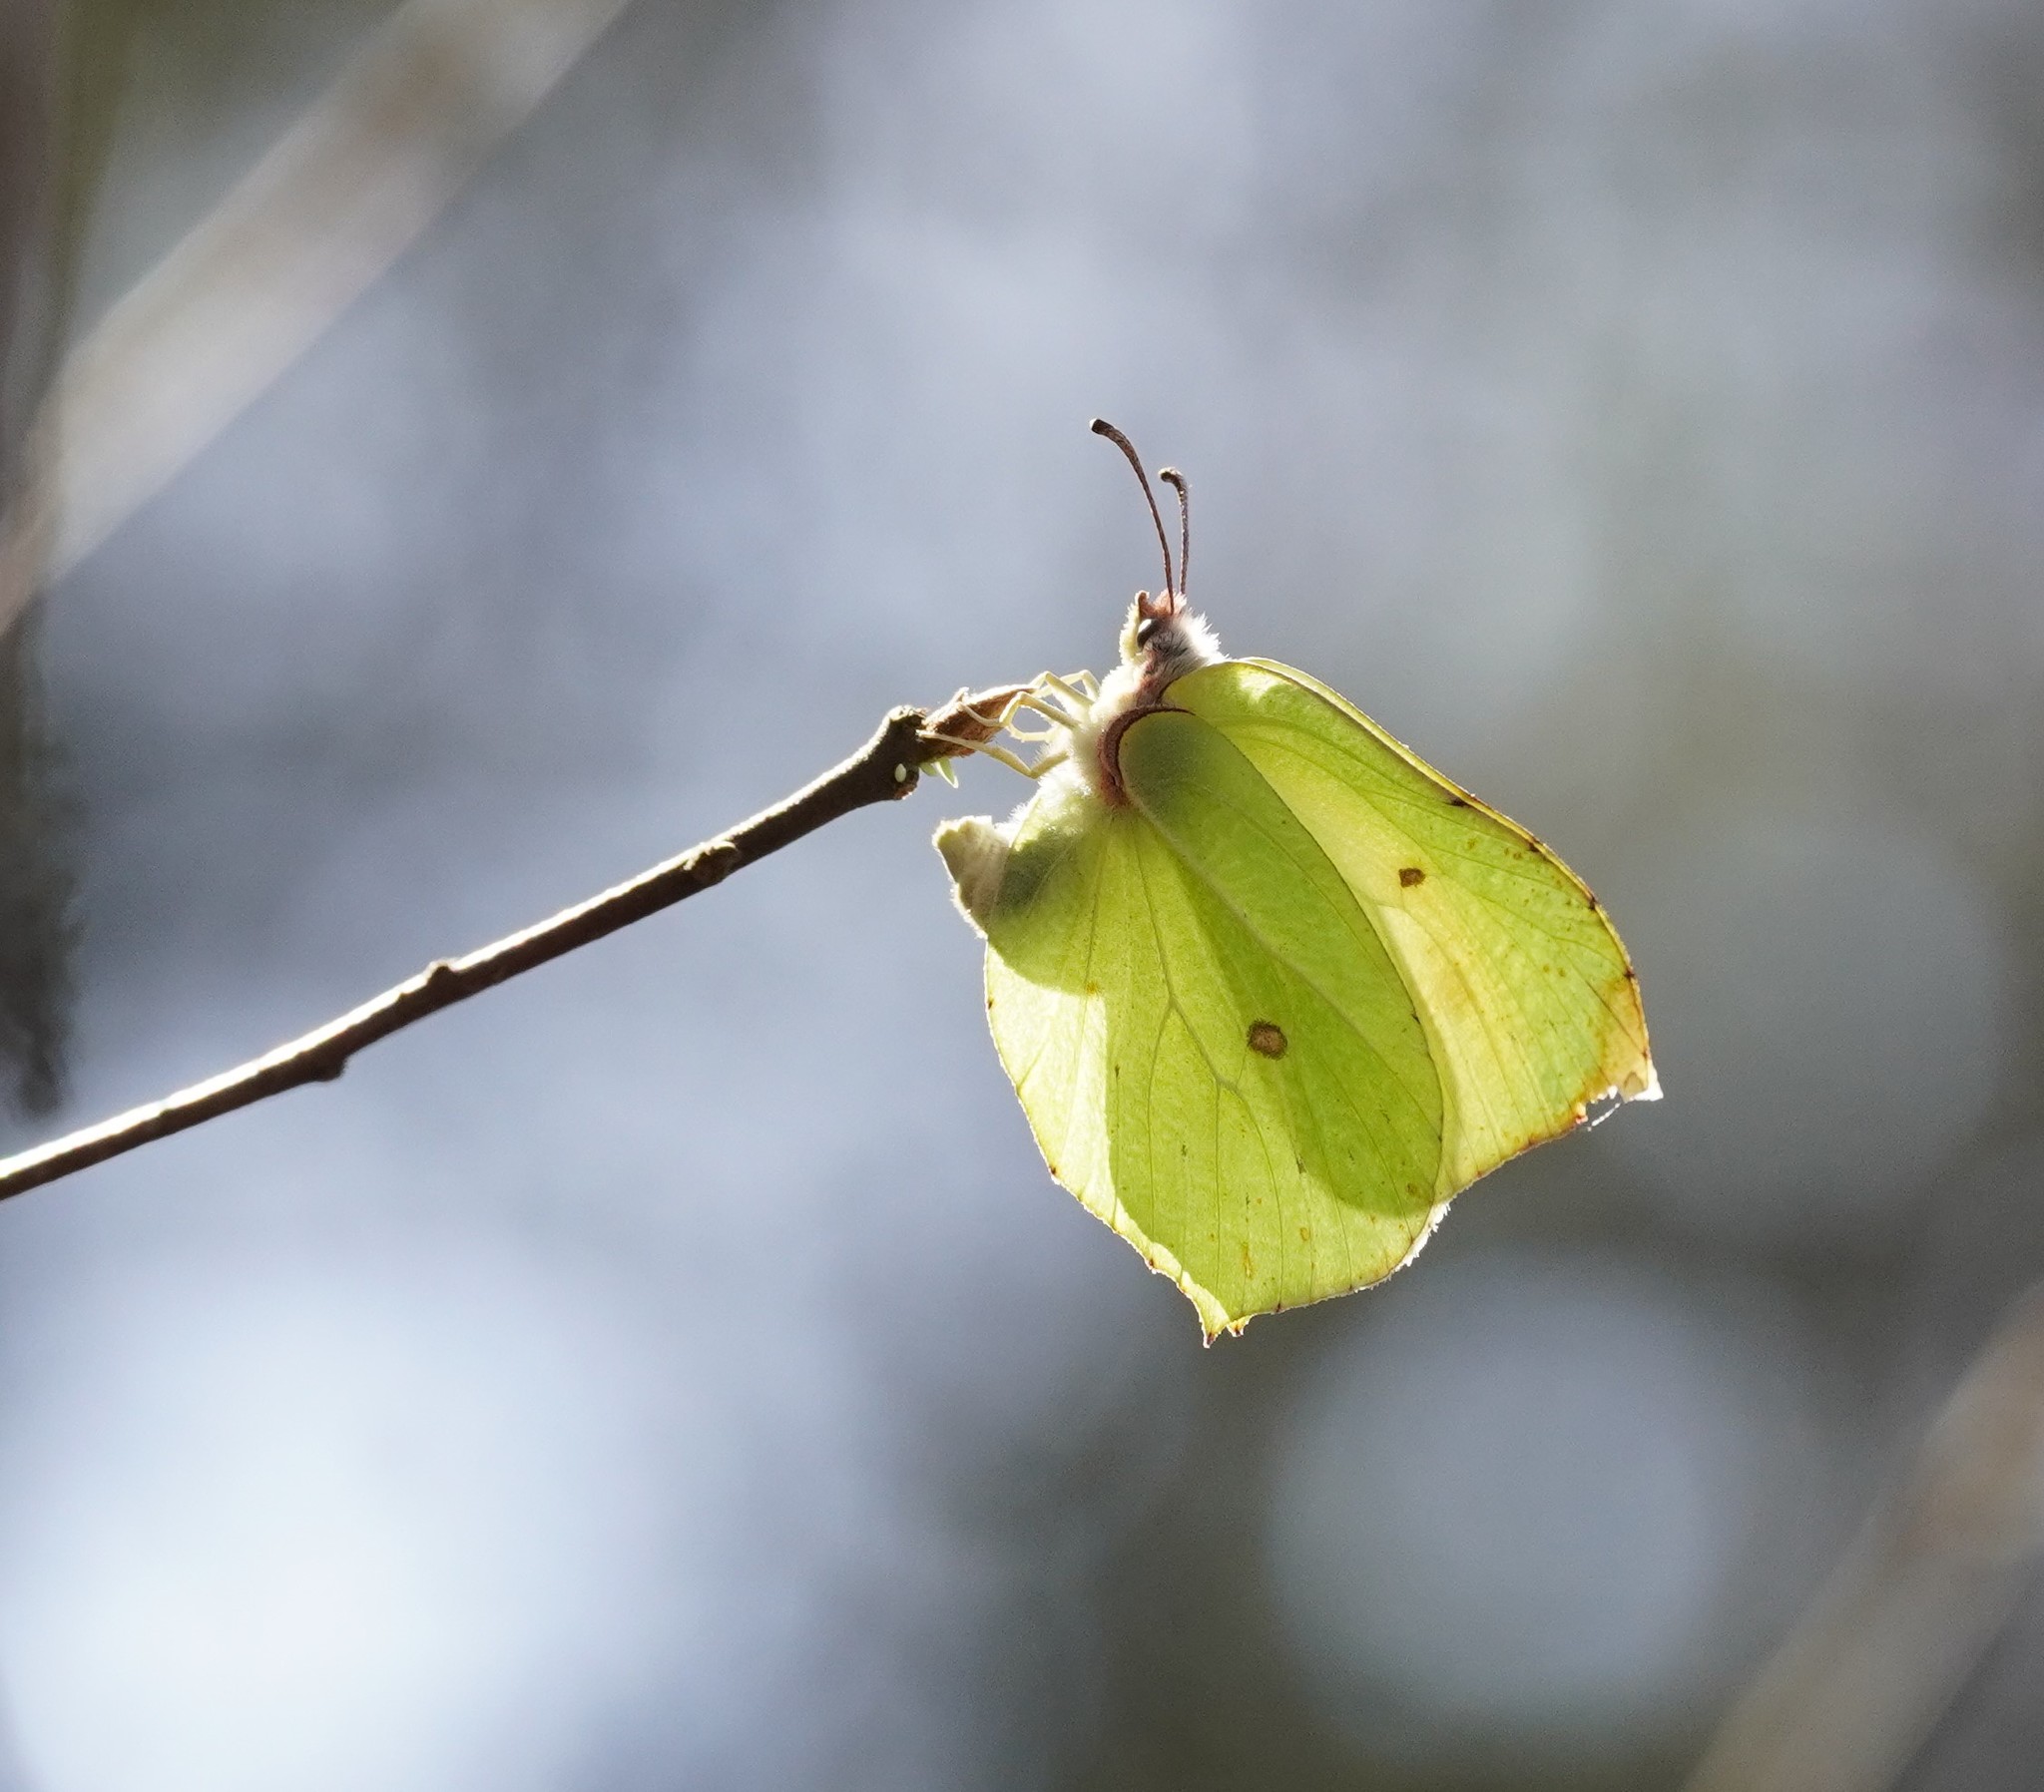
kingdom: Animalia
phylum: Arthropoda
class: Insecta
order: Lepidoptera
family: Pieridae
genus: Gonepteryx
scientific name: Gonepteryx rhamni
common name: Brimstone
